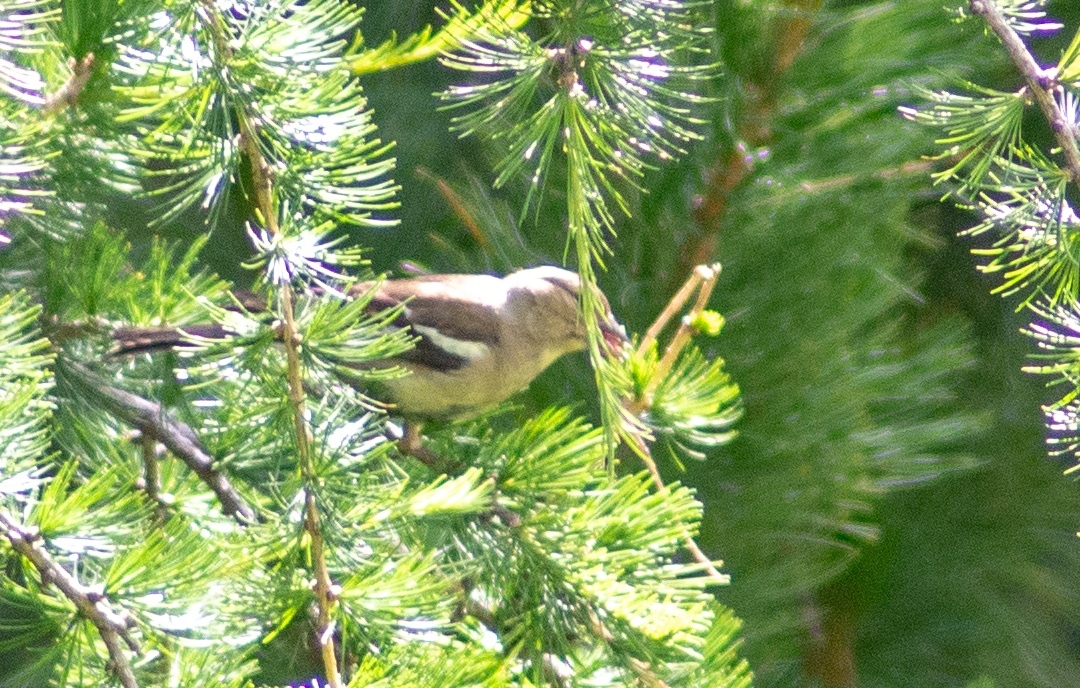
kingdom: Animalia
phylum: Chordata
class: Aves
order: Passeriformes
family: Fringillidae
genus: Fringilla
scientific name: Fringilla coelebs
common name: Common chaffinch
